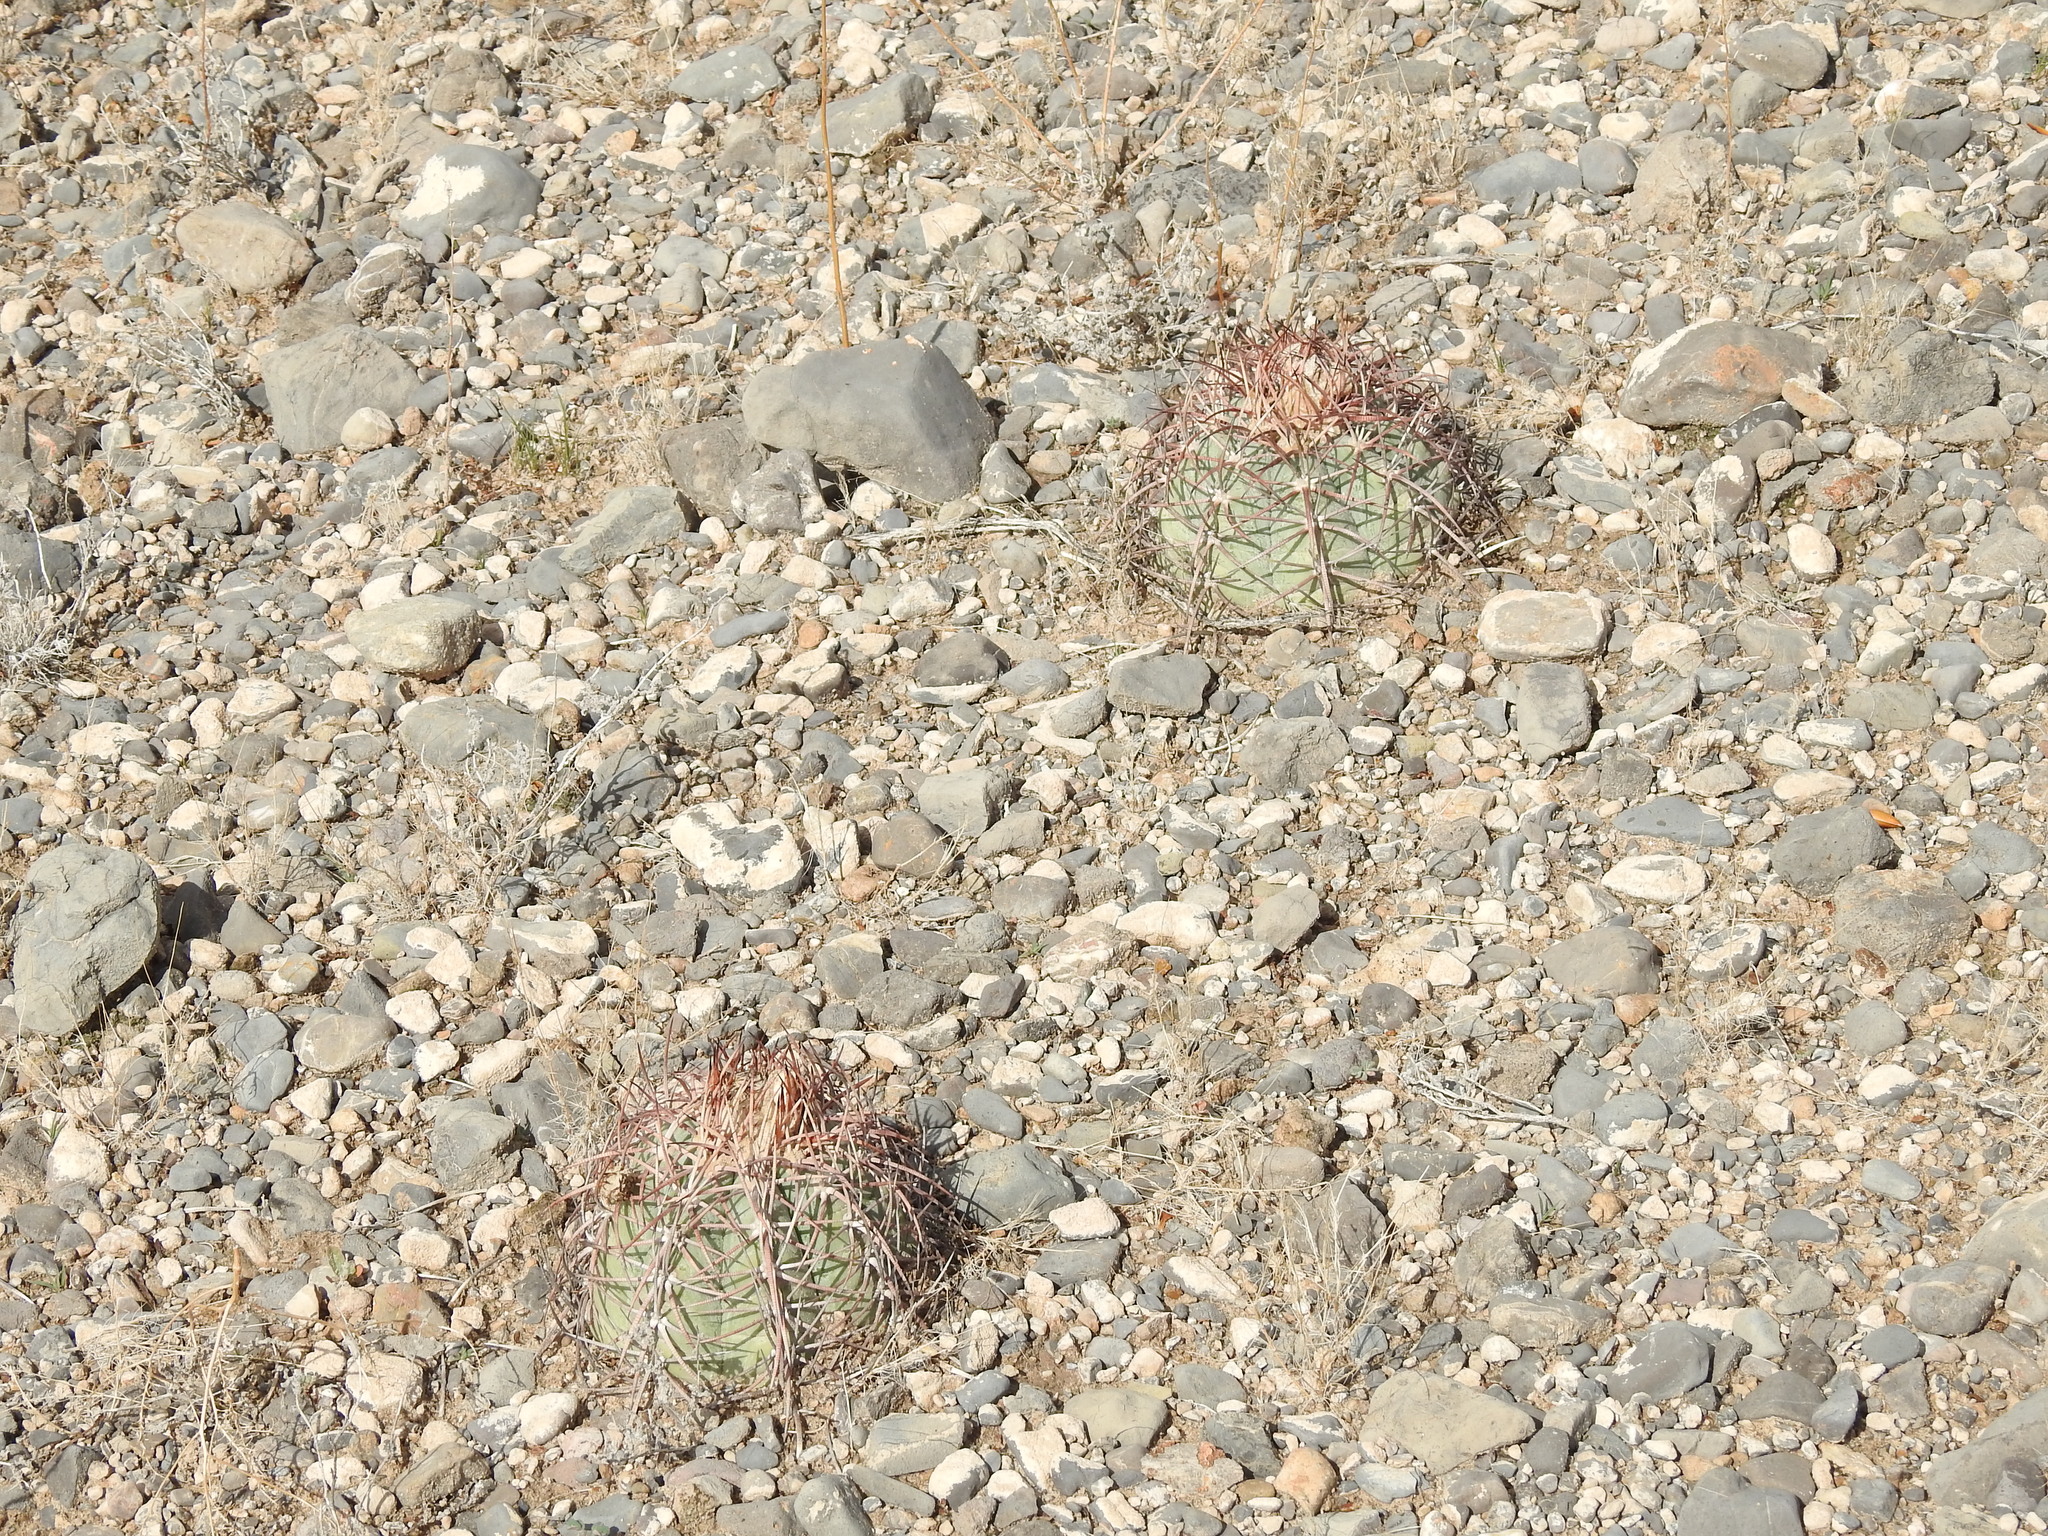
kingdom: Plantae
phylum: Tracheophyta
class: Magnoliopsida
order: Caryophyllales
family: Cactaceae
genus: Echinocactus
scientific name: Echinocactus horizonthalonius
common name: Devilshead
